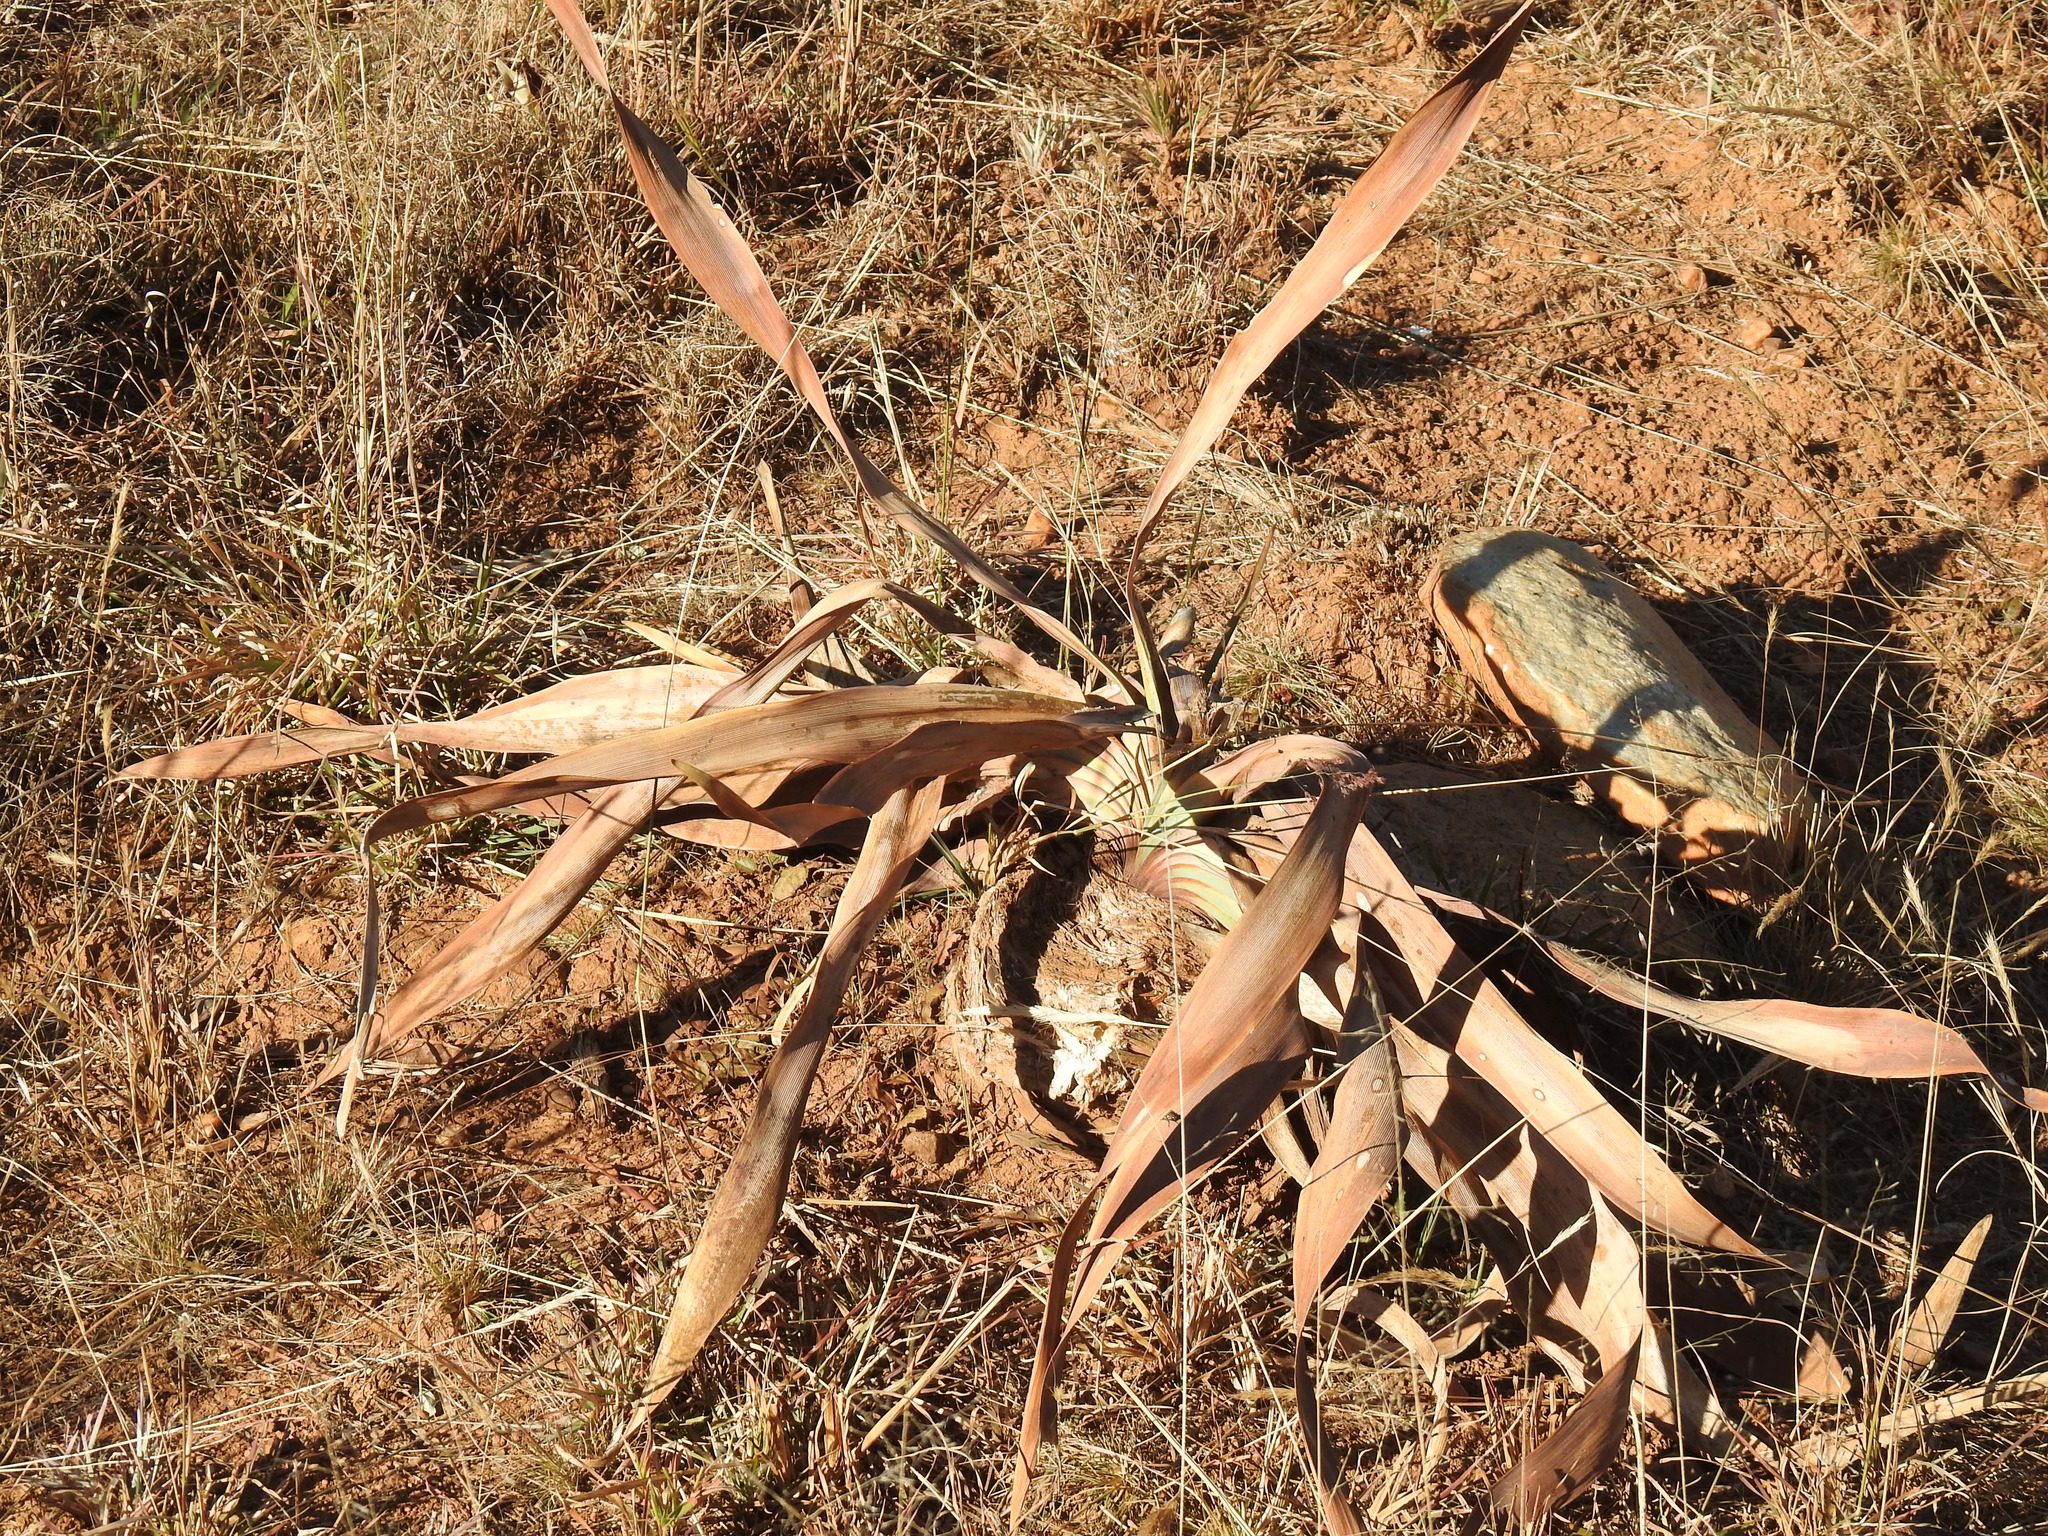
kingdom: Plantae
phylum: Tracheophyta
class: Liliopsida
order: Asparagales
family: Amaryllidaceae
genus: Boophone
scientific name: Boophone disticha
